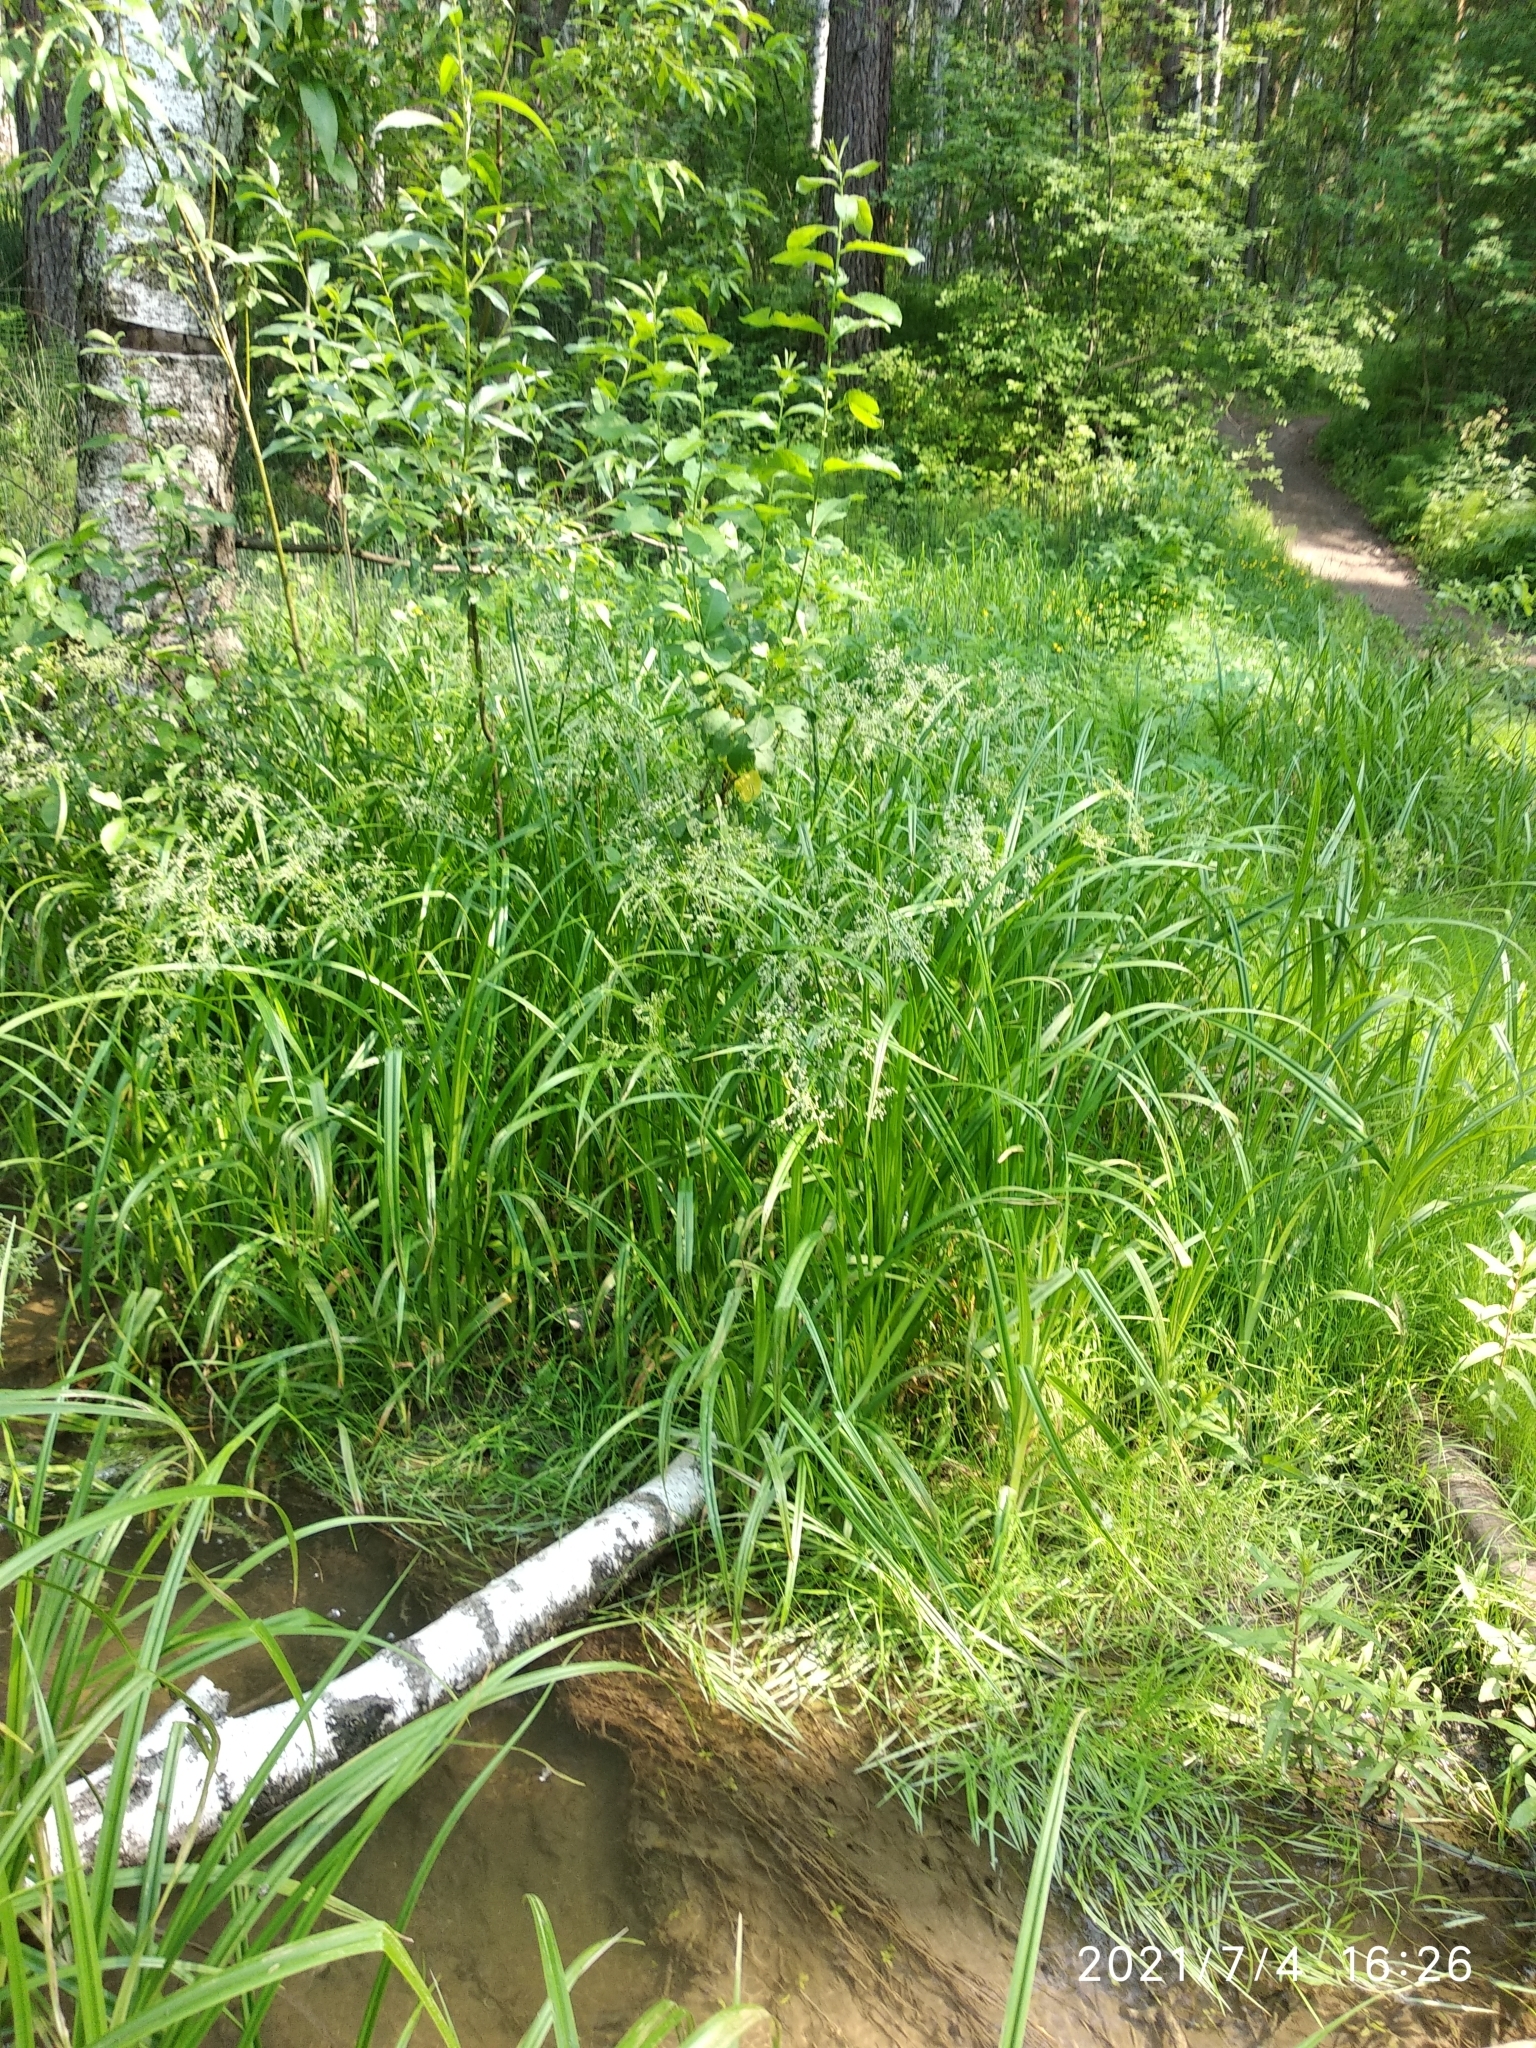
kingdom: Plantae
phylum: Tracheophyta
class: Liliopsida
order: Poales
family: Cyperaceae
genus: Scirpus
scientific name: Scirpus sylvaticus
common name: Wood club-rush
